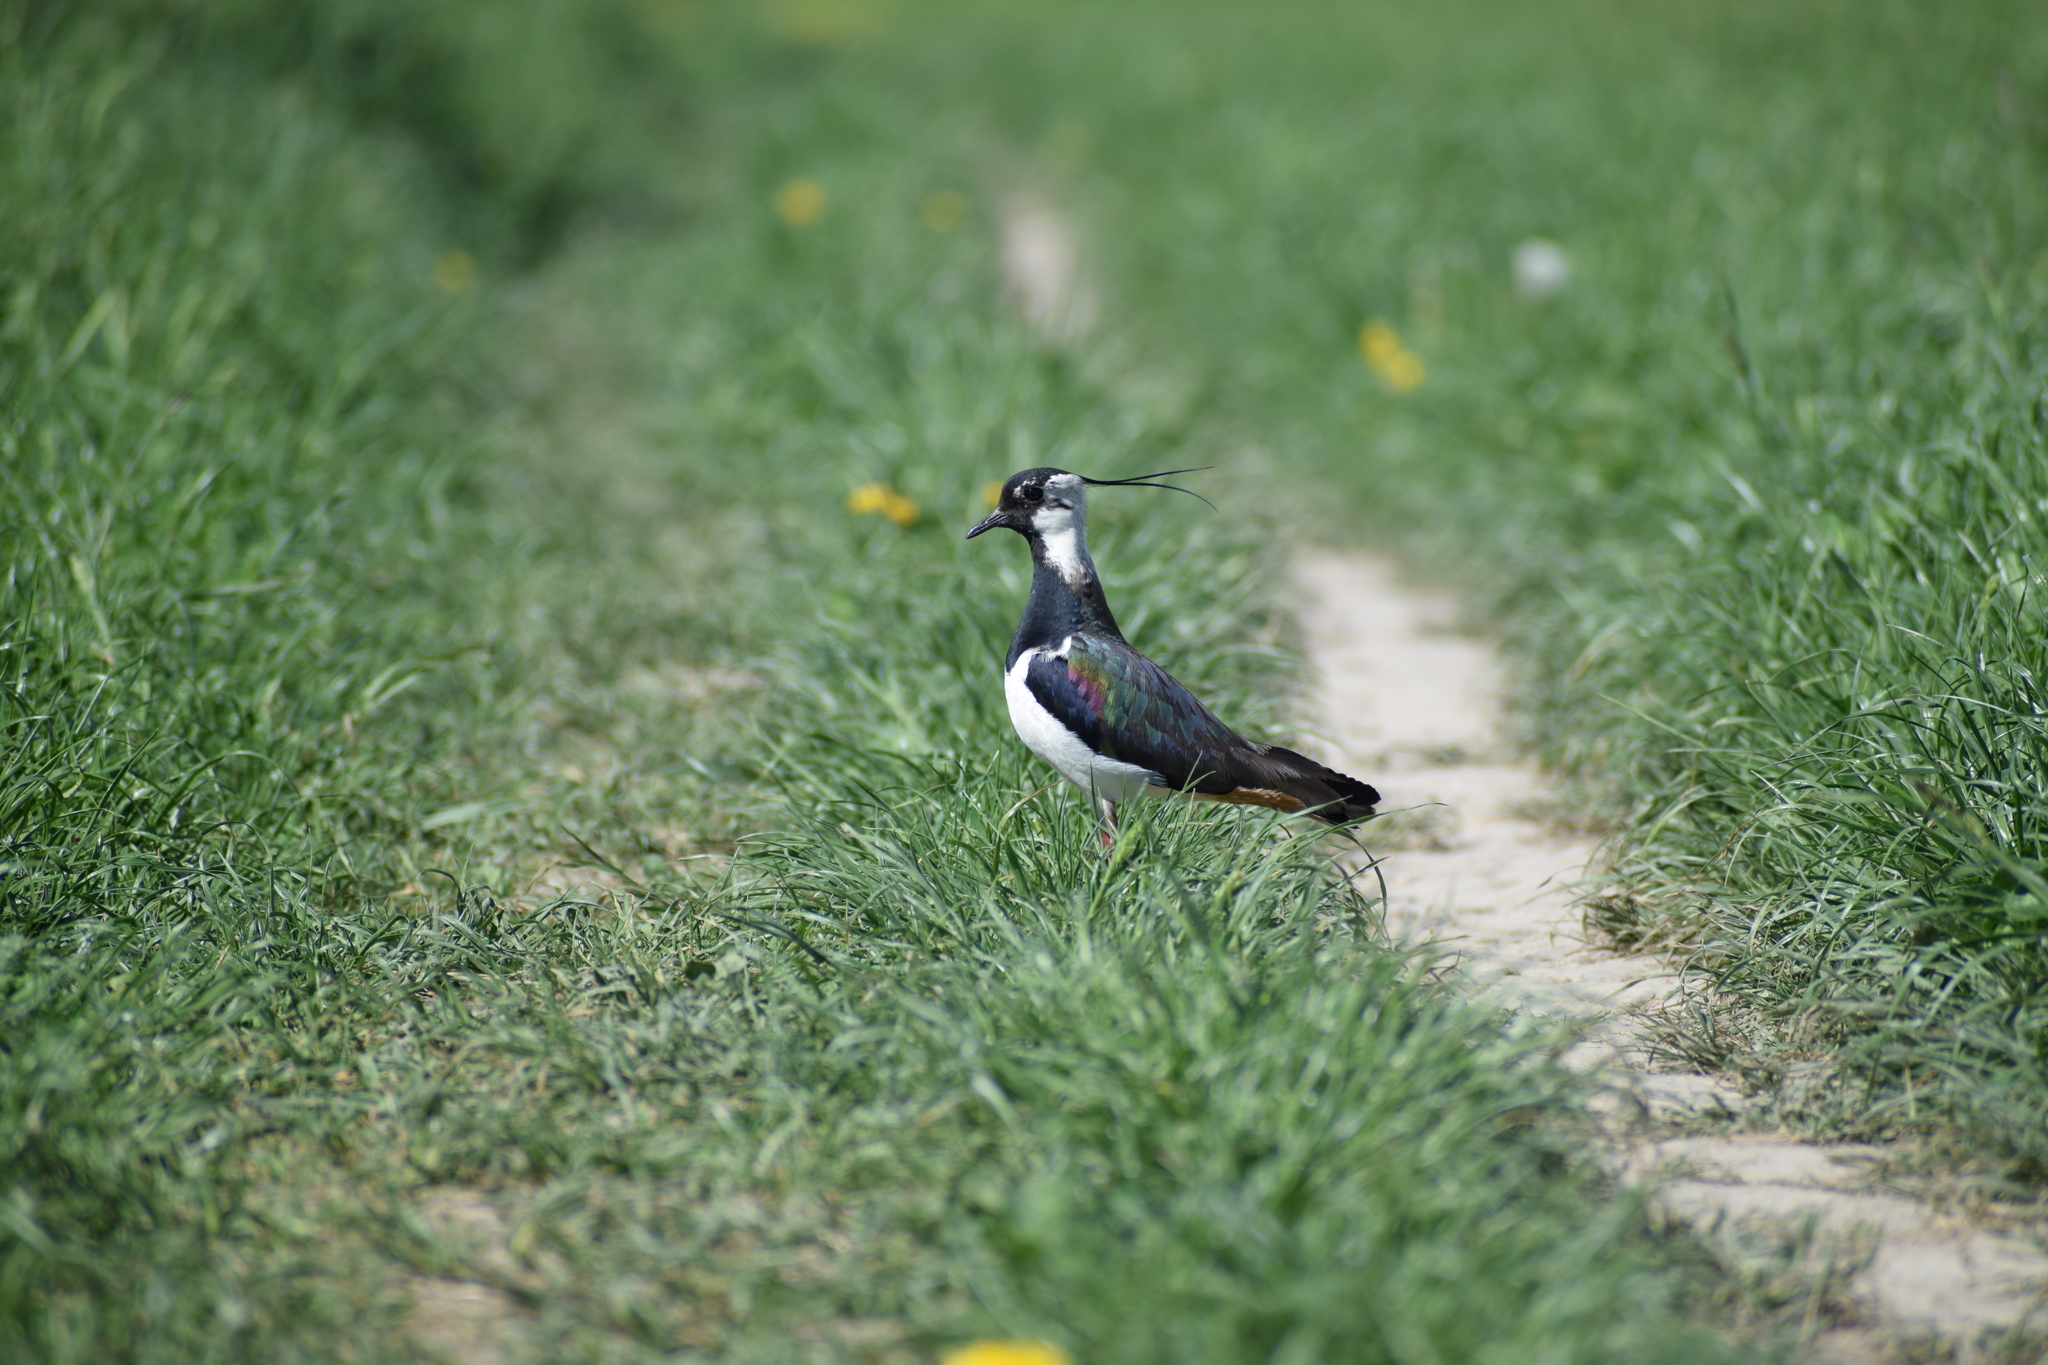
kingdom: Animalia
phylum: Chordata
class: Aves
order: Charadriiformes
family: Charadriidae
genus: Vanellus
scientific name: Vanellus vanellus
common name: Northern lapwing
